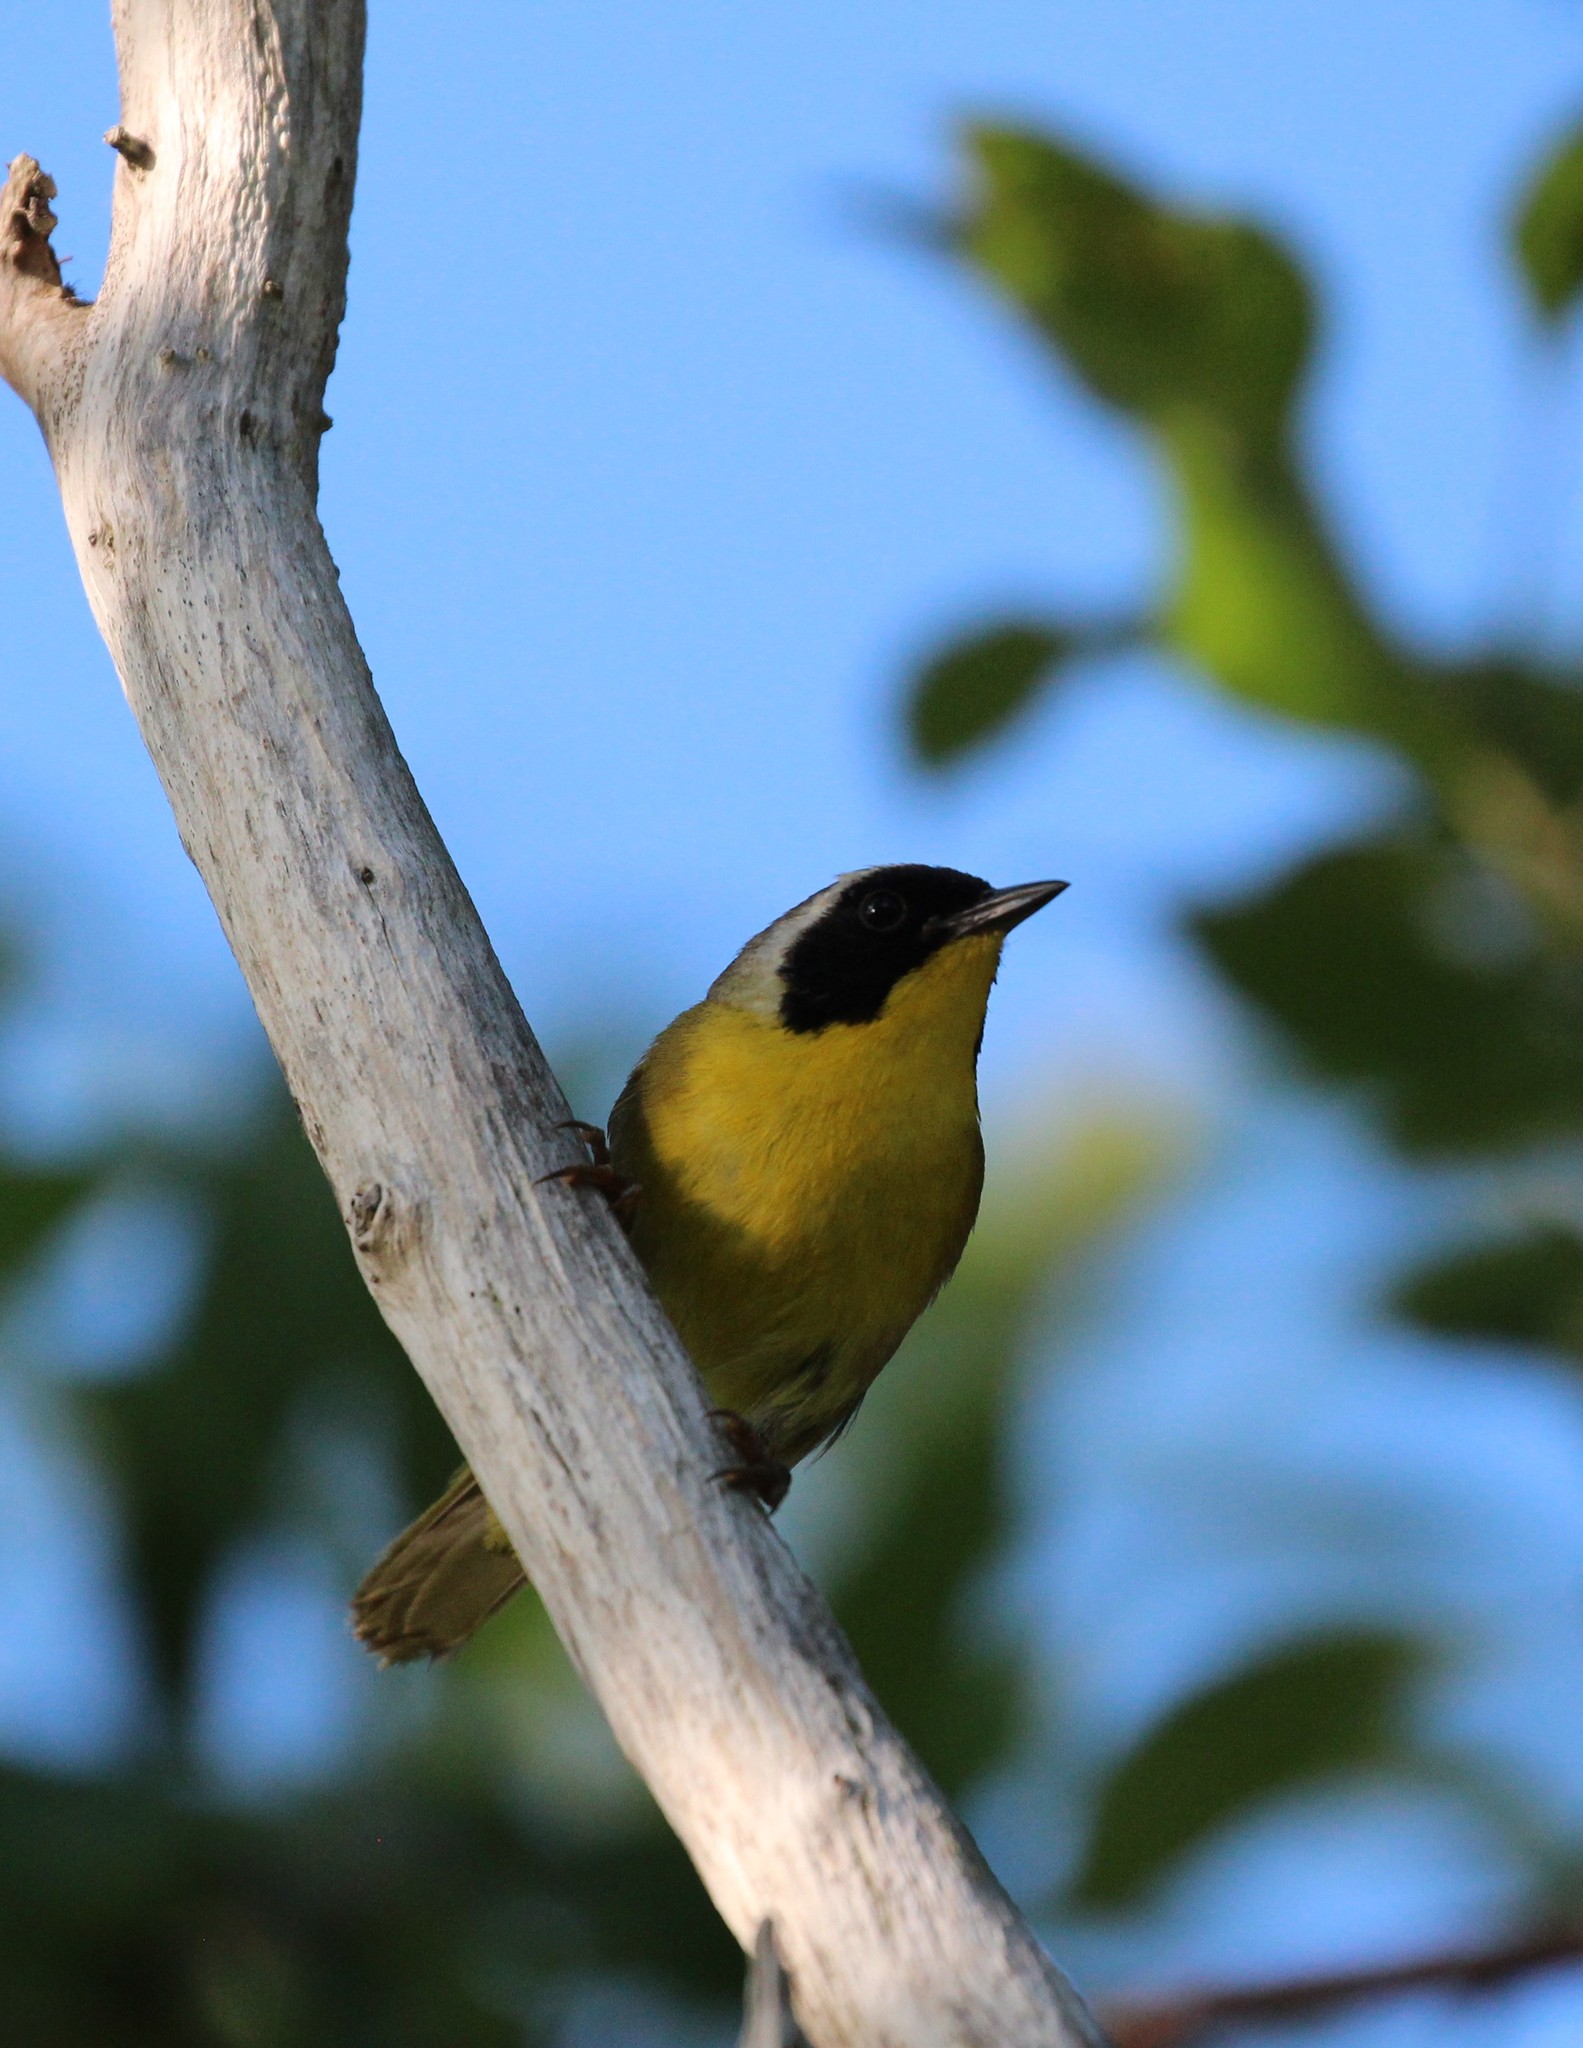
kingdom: Animalia
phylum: Chordata
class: Aves
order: Passeriformes
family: Parulidae
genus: Geothlypis
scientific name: Geothlypis trichas
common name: Common yellowthroat
